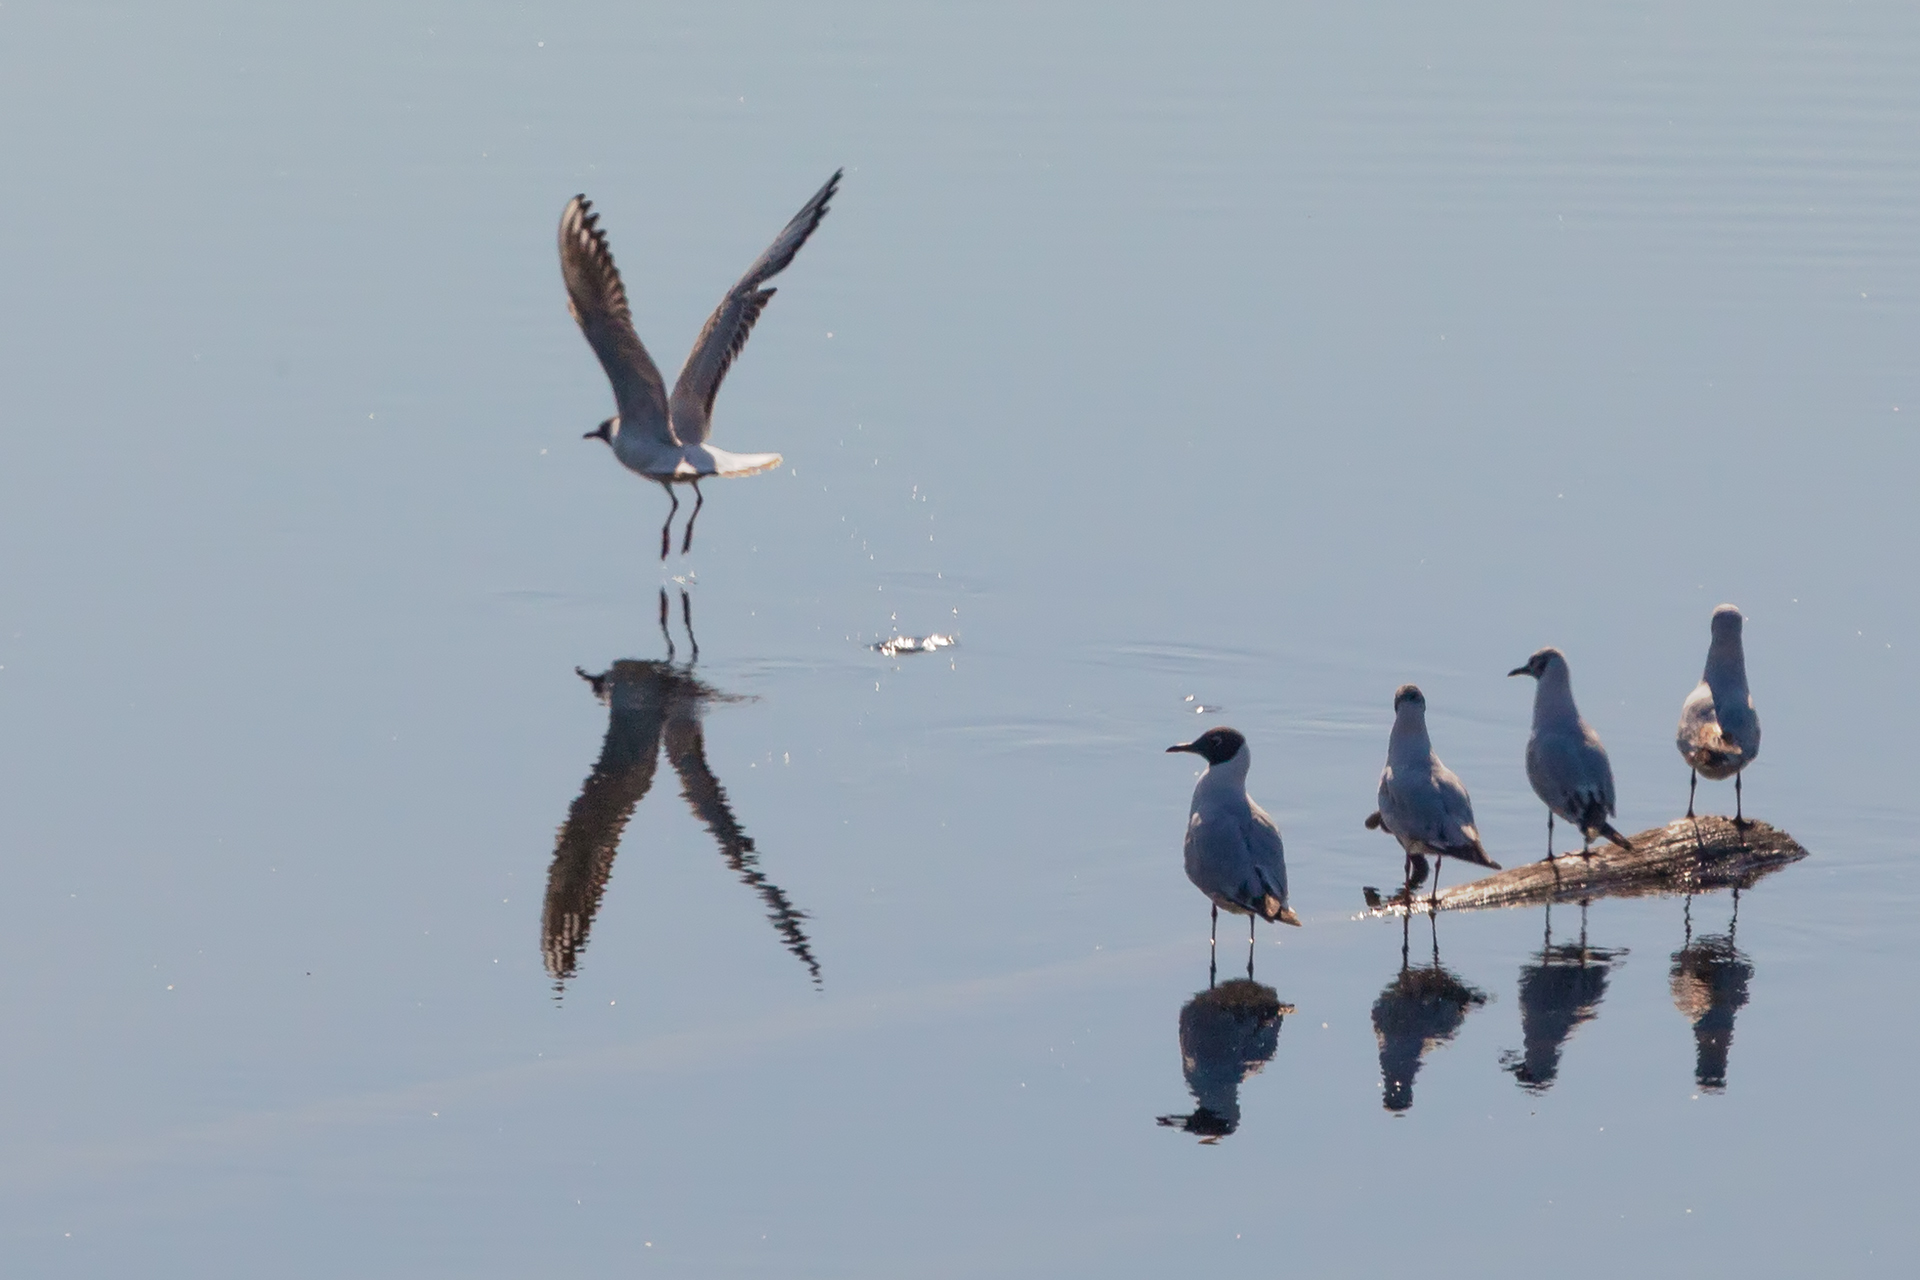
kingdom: Animalia
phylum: Chordata
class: Aves
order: Charadriiformes
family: Laridae
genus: Chroicocephalus
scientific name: Chroicocephalus ridibundus
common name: Black-headed gull
